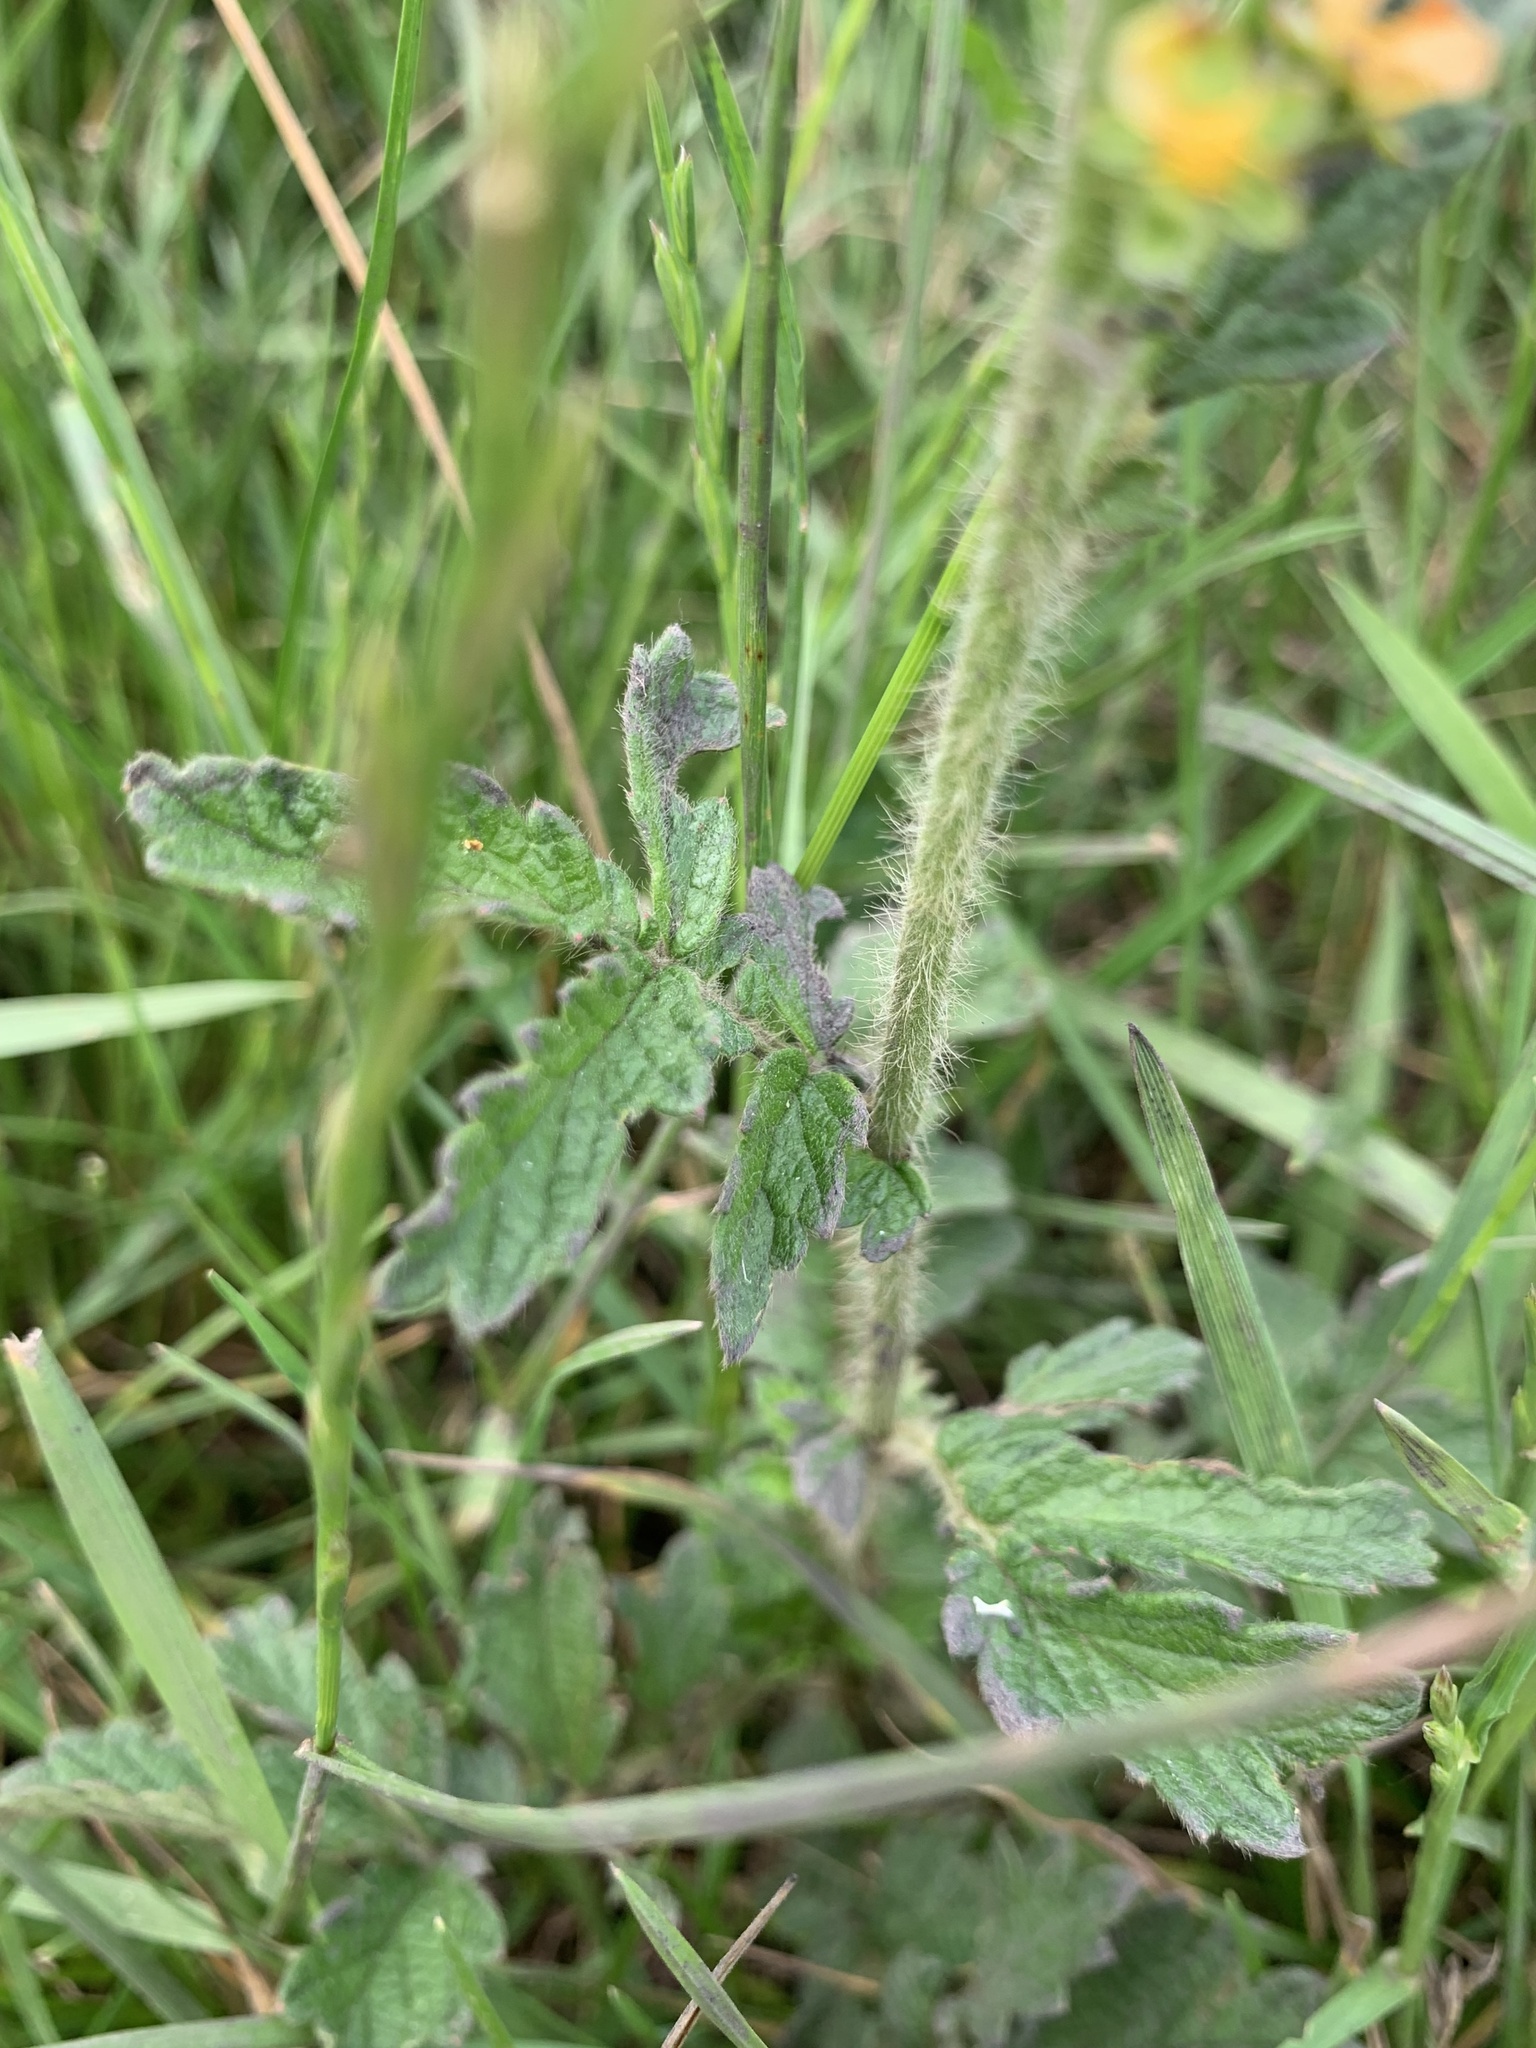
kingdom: Plantae
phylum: Tracheophyta
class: Magnoliopsida
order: Rosales
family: Rosaceae
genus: Agrimonia
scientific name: Agrimonia eupatoria
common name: Agrimony
